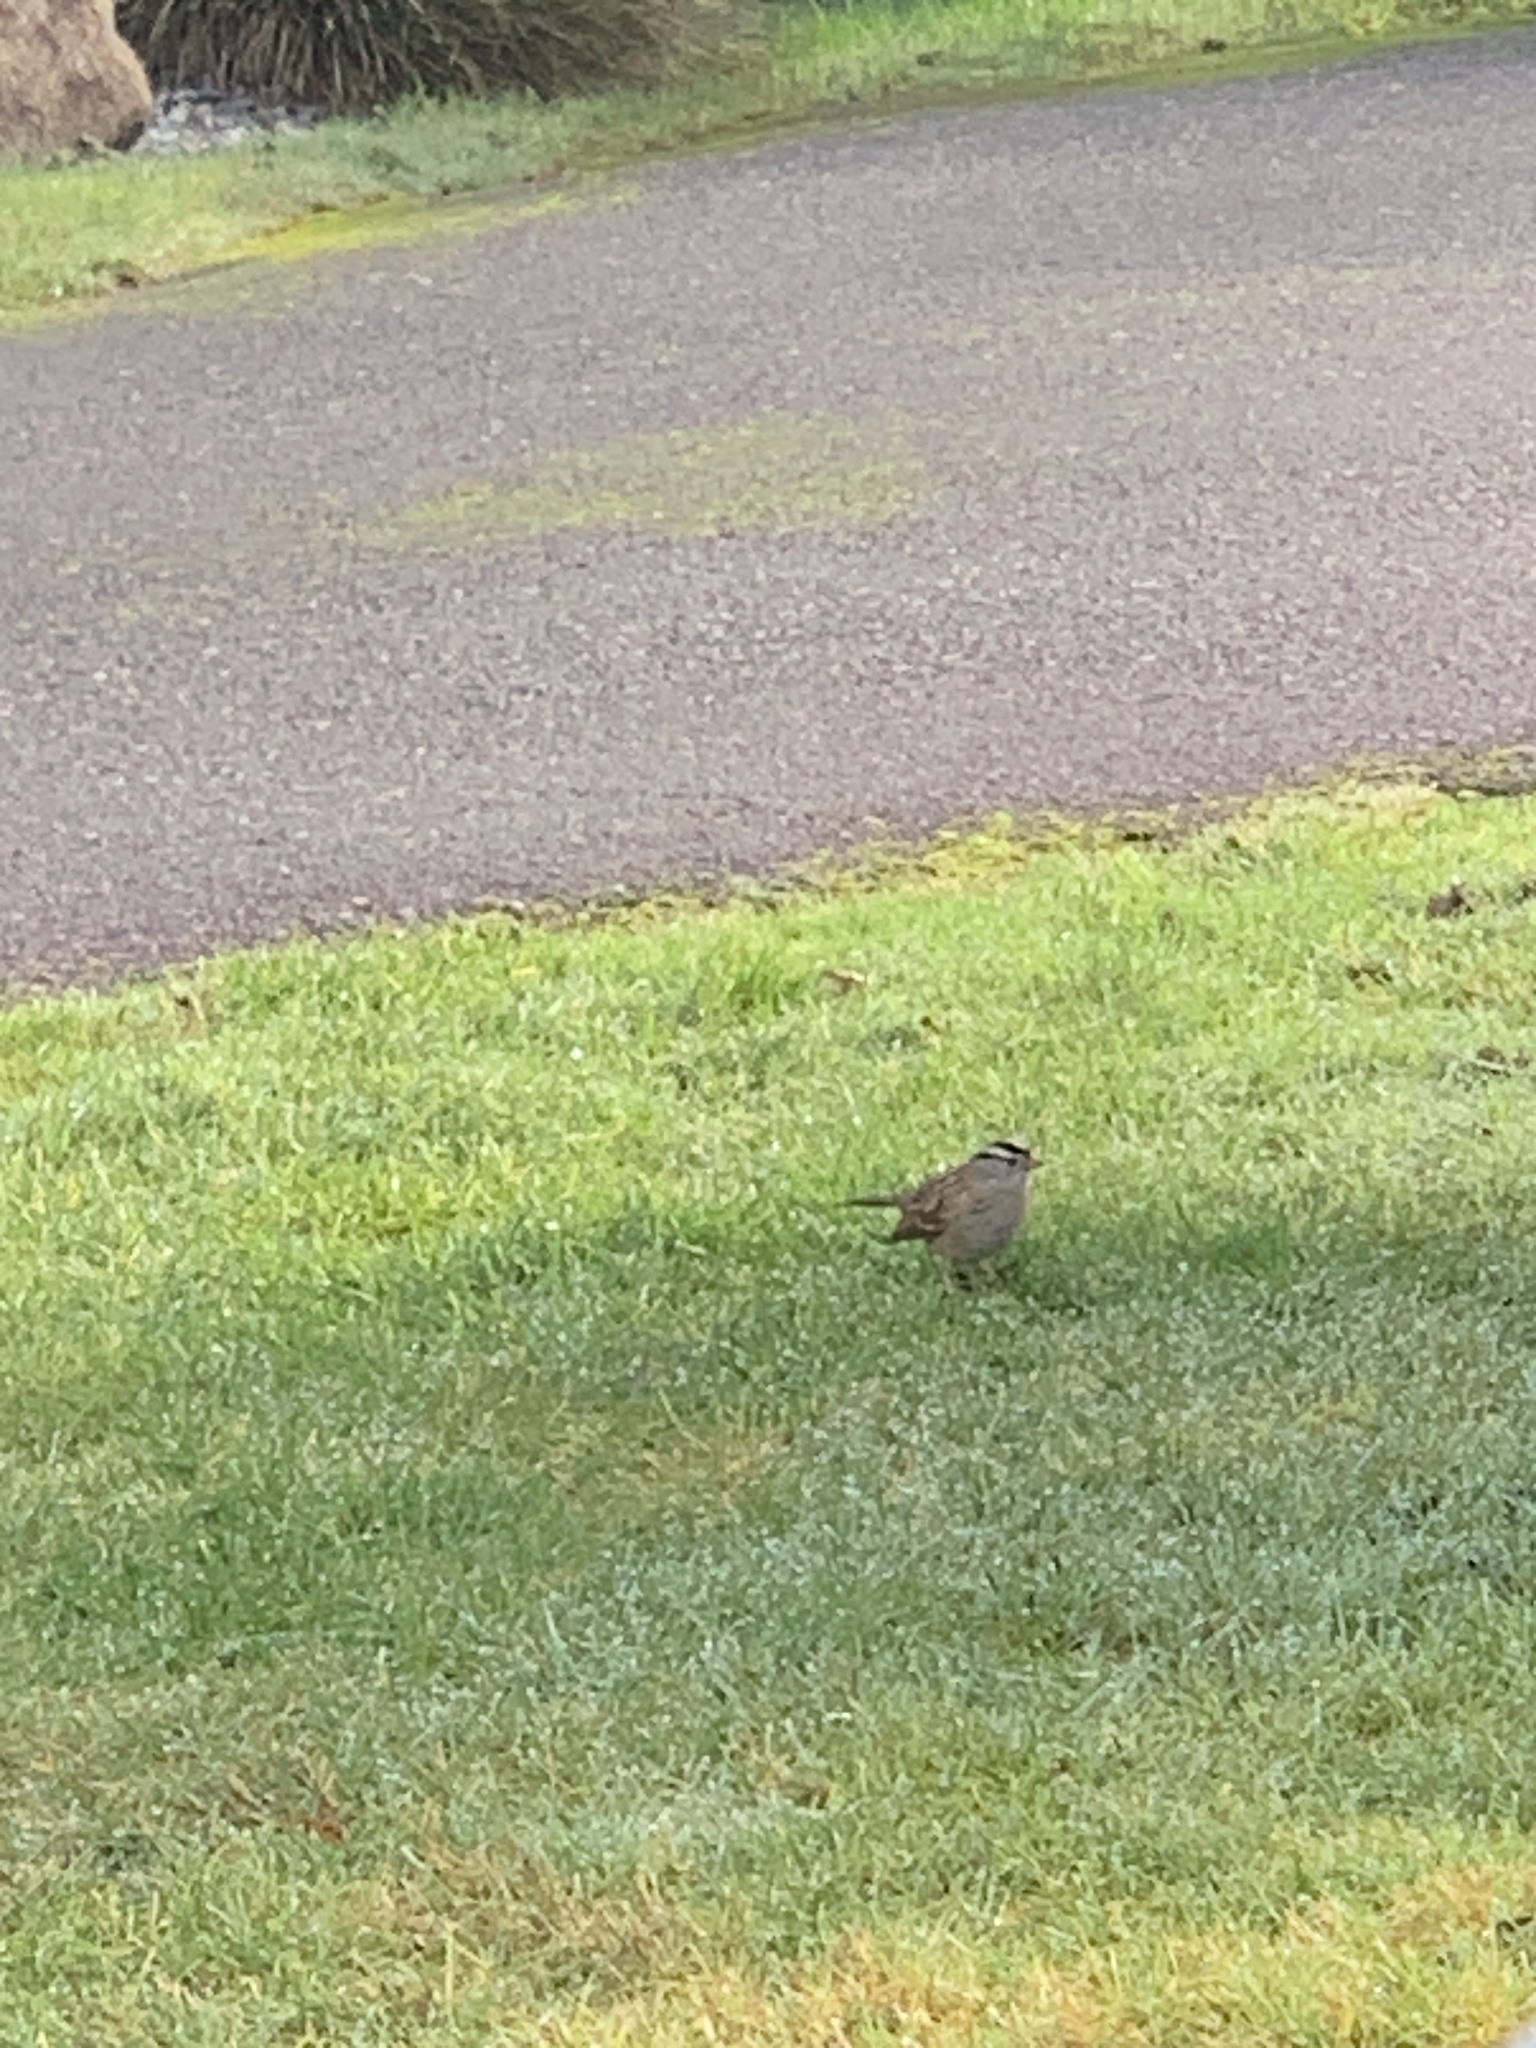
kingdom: Animalia
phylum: Chordata
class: Aves
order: Passeriformes
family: Passerellidae
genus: Zonotrichia
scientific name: Zonotrichia leucophrys
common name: White-crowned sparrow
